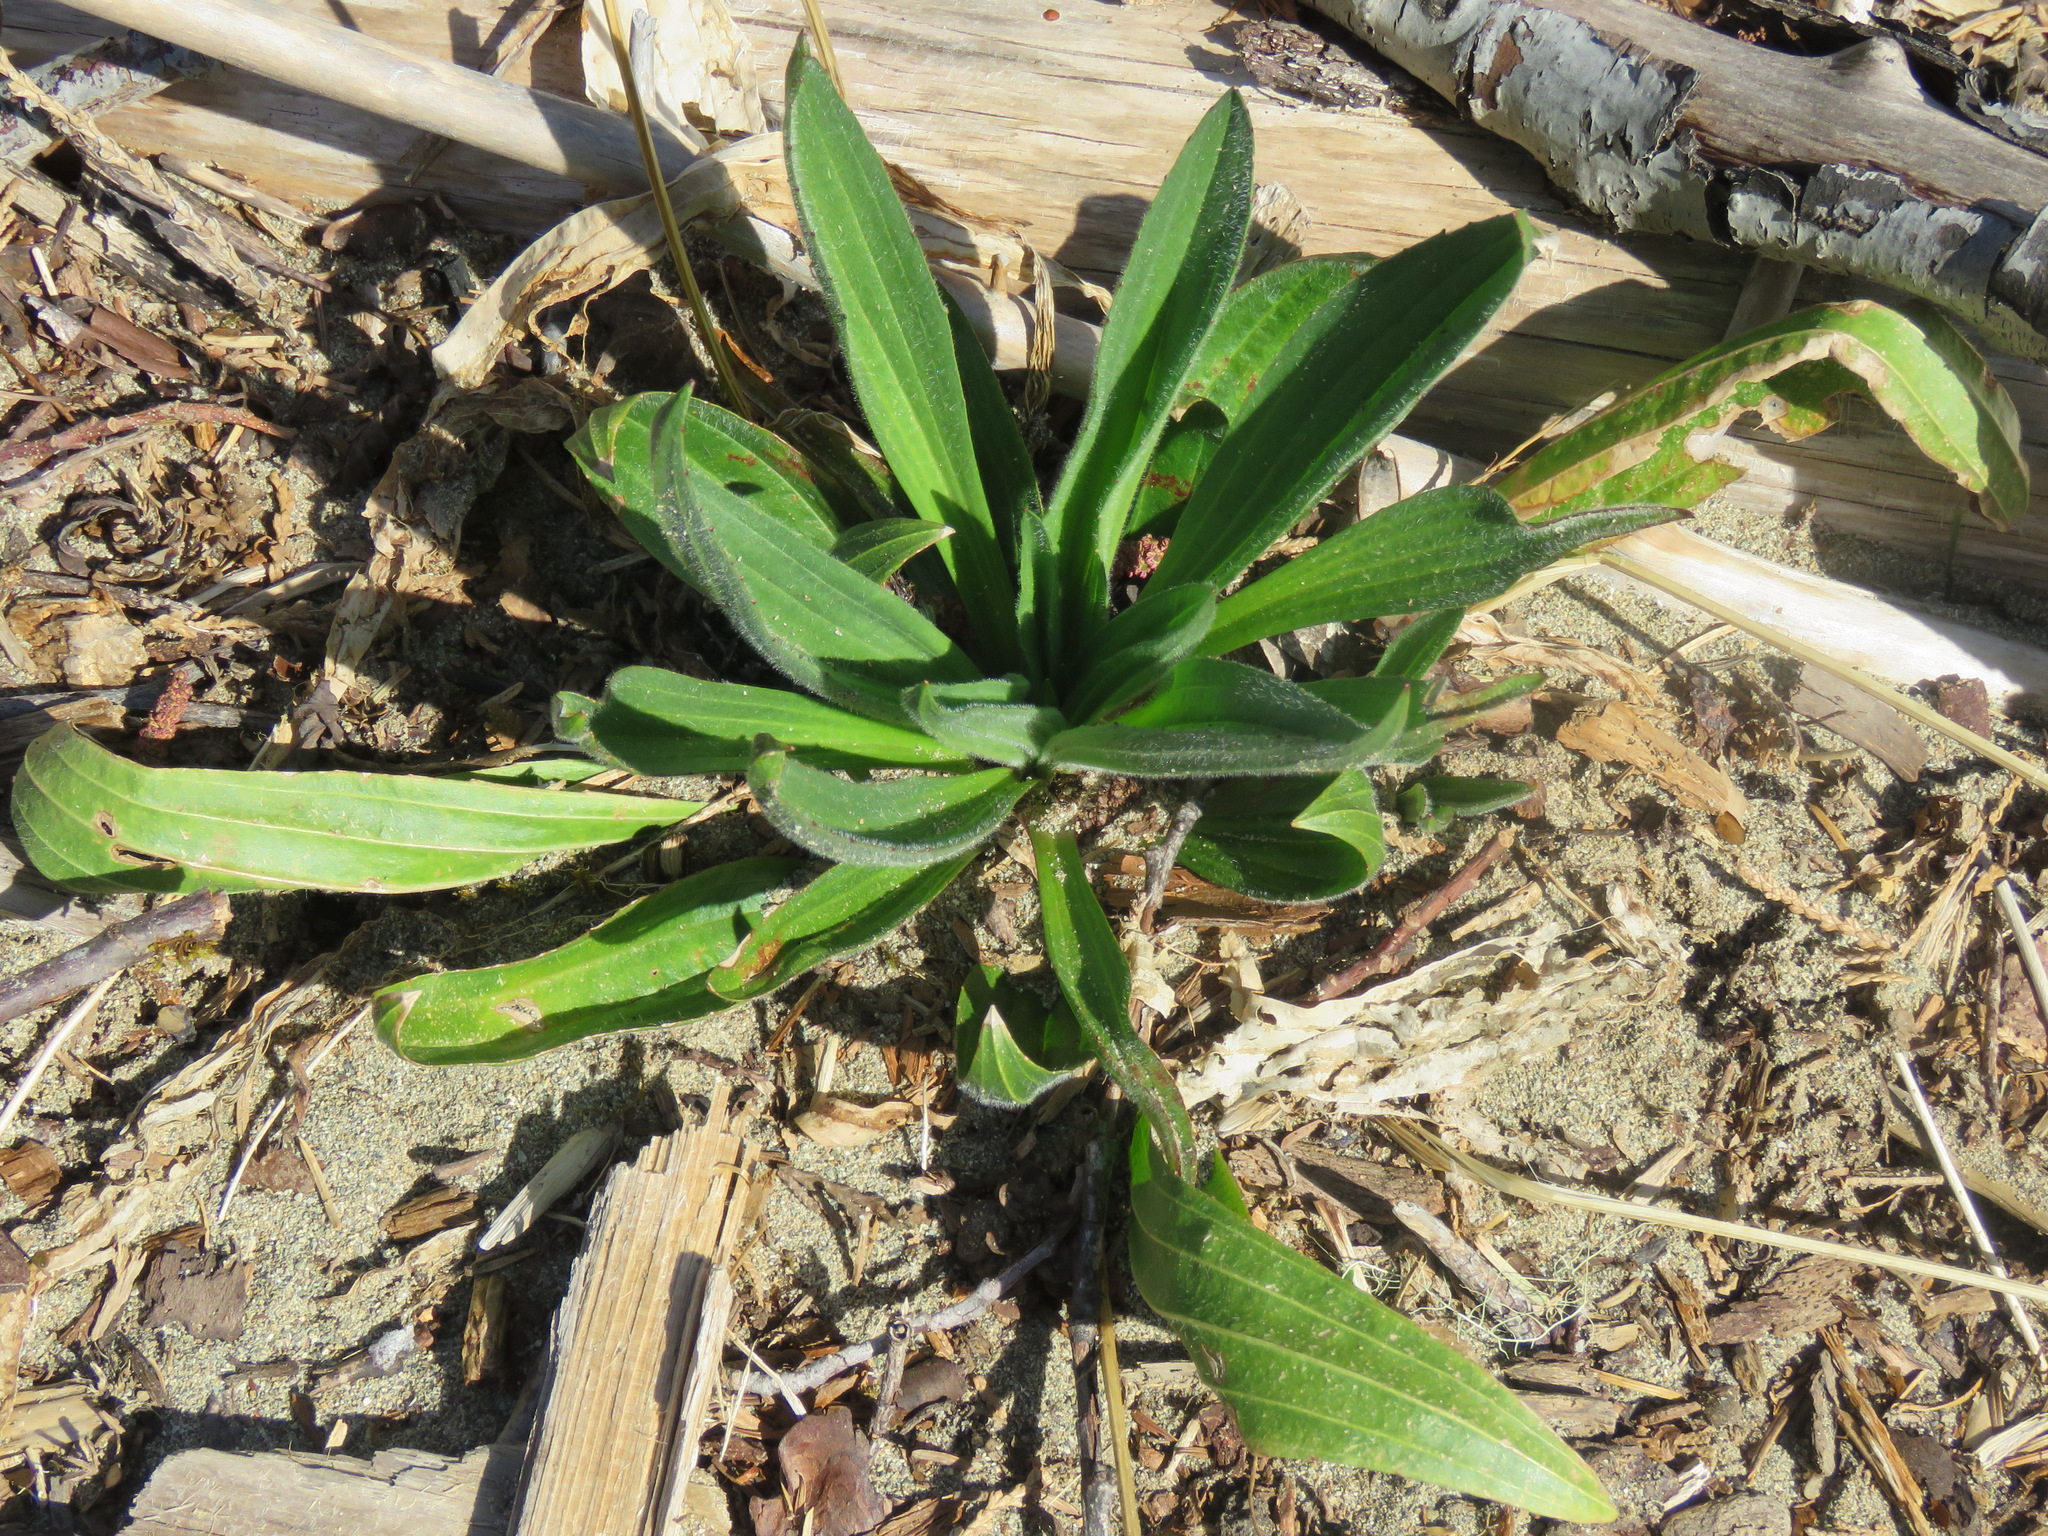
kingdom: Plantae
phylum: Tracheophyta
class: Magnoliopsida
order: Lamiales
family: Plantaginaceae
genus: Plantago
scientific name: Plantago lanceolata
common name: Ribwort plantain
